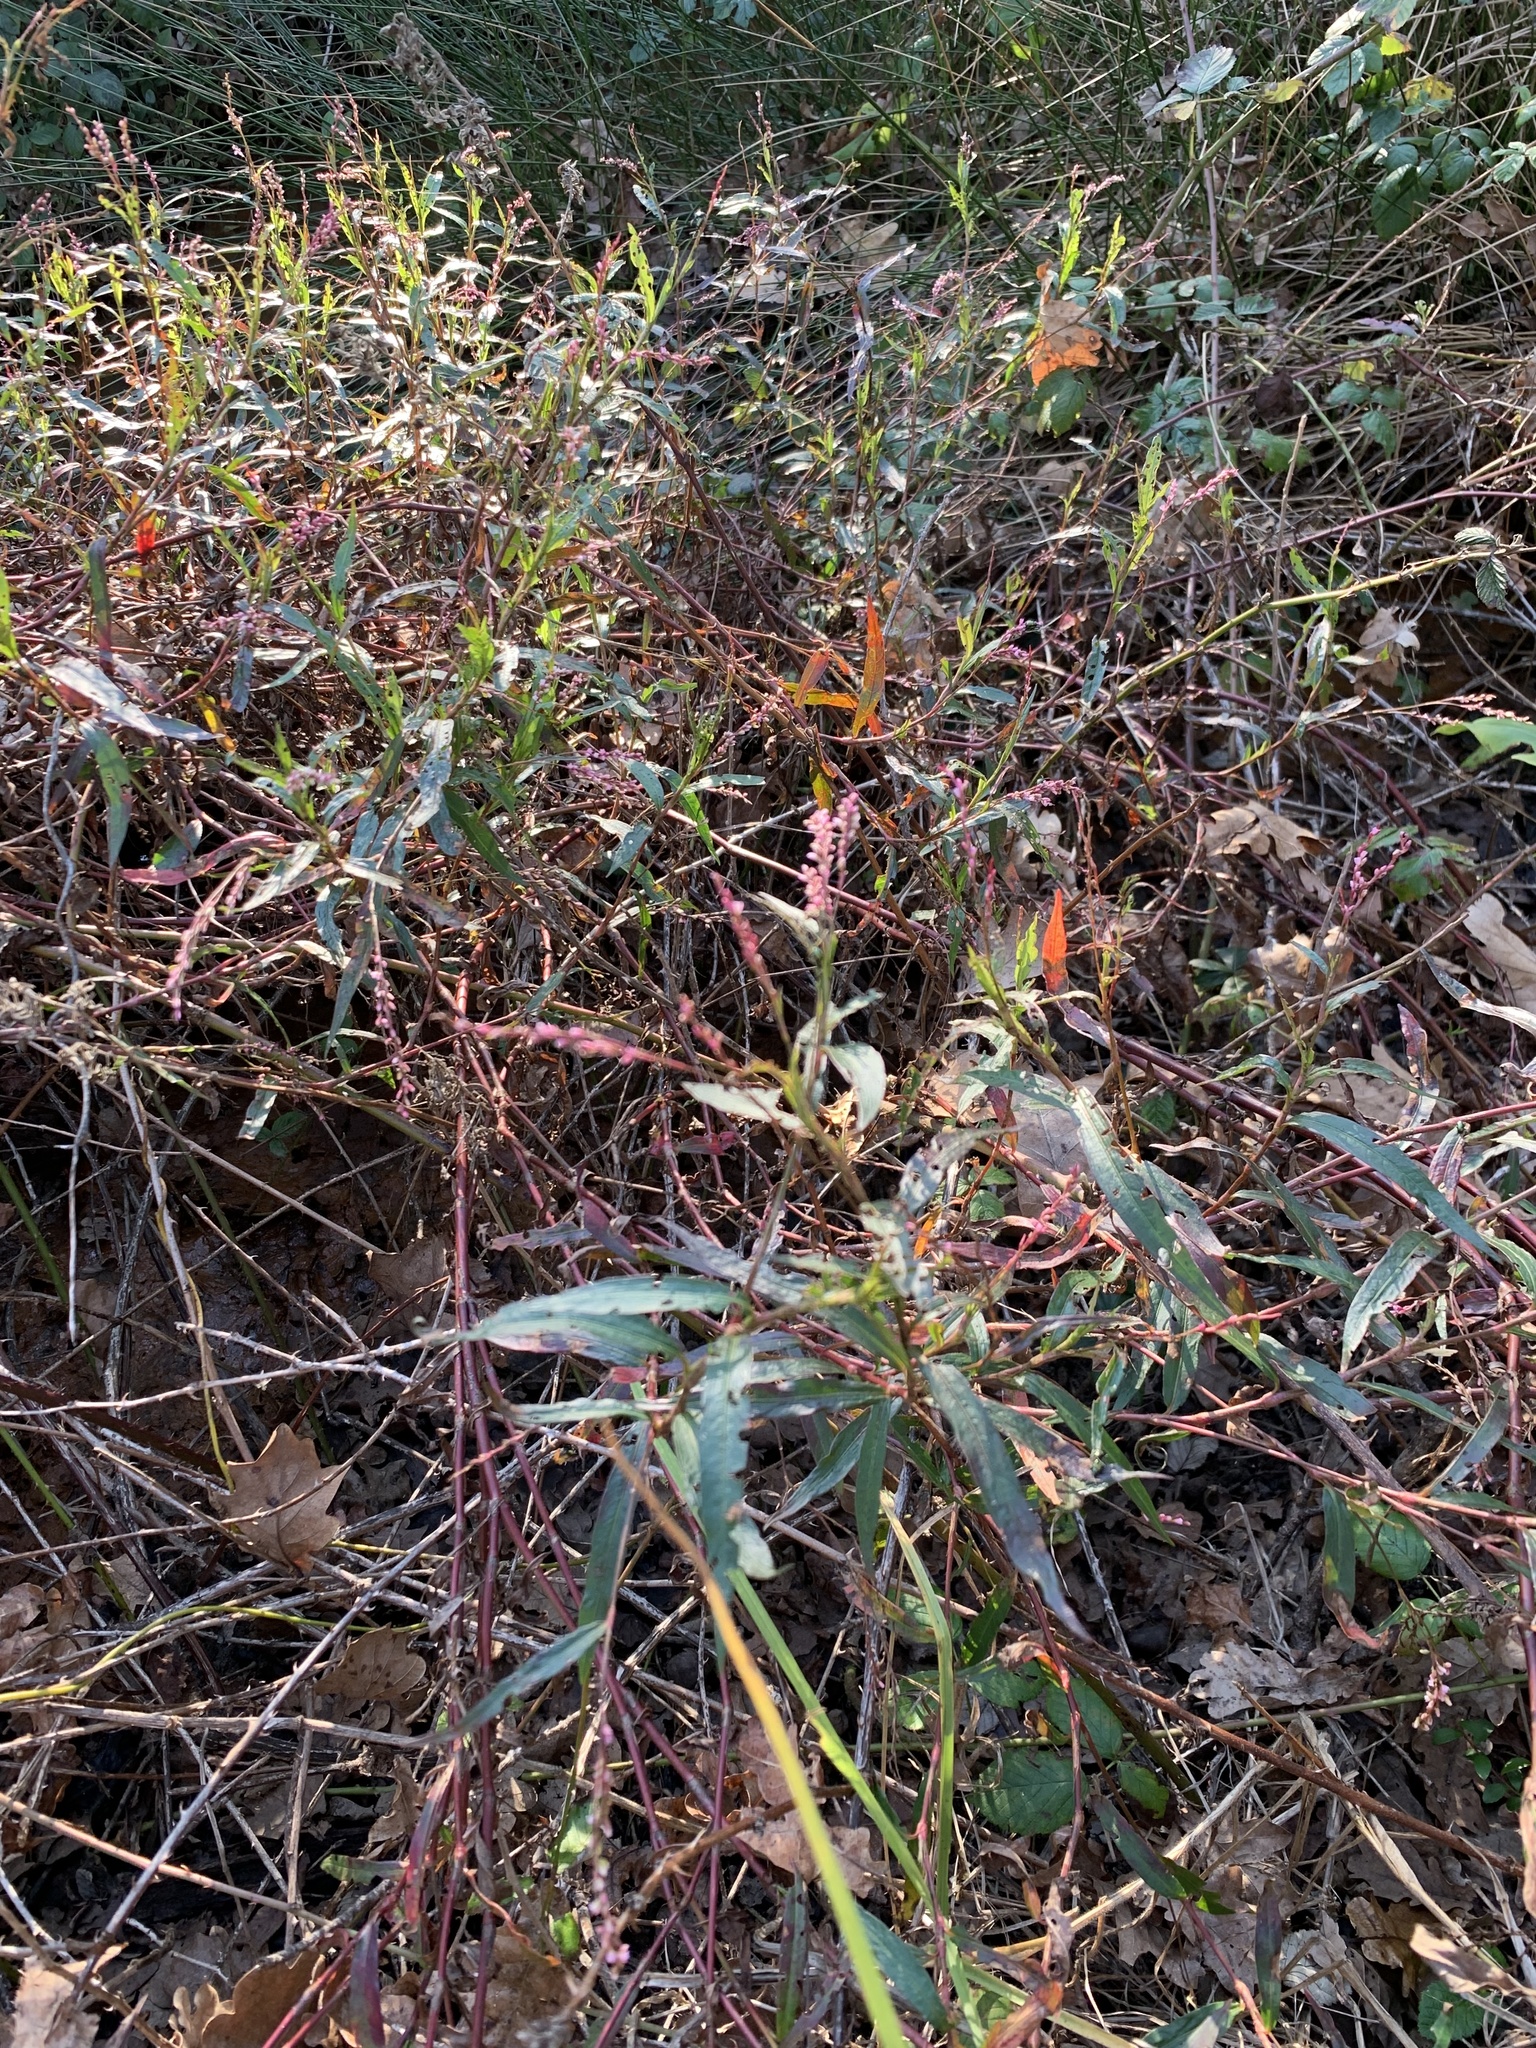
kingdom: Plantae
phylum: Tracheophyta
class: Magnoliopsida
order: Caryophyllales
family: Polygonaceae
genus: Persicaria
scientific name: Persicaria decipiens
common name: Willow-weed
